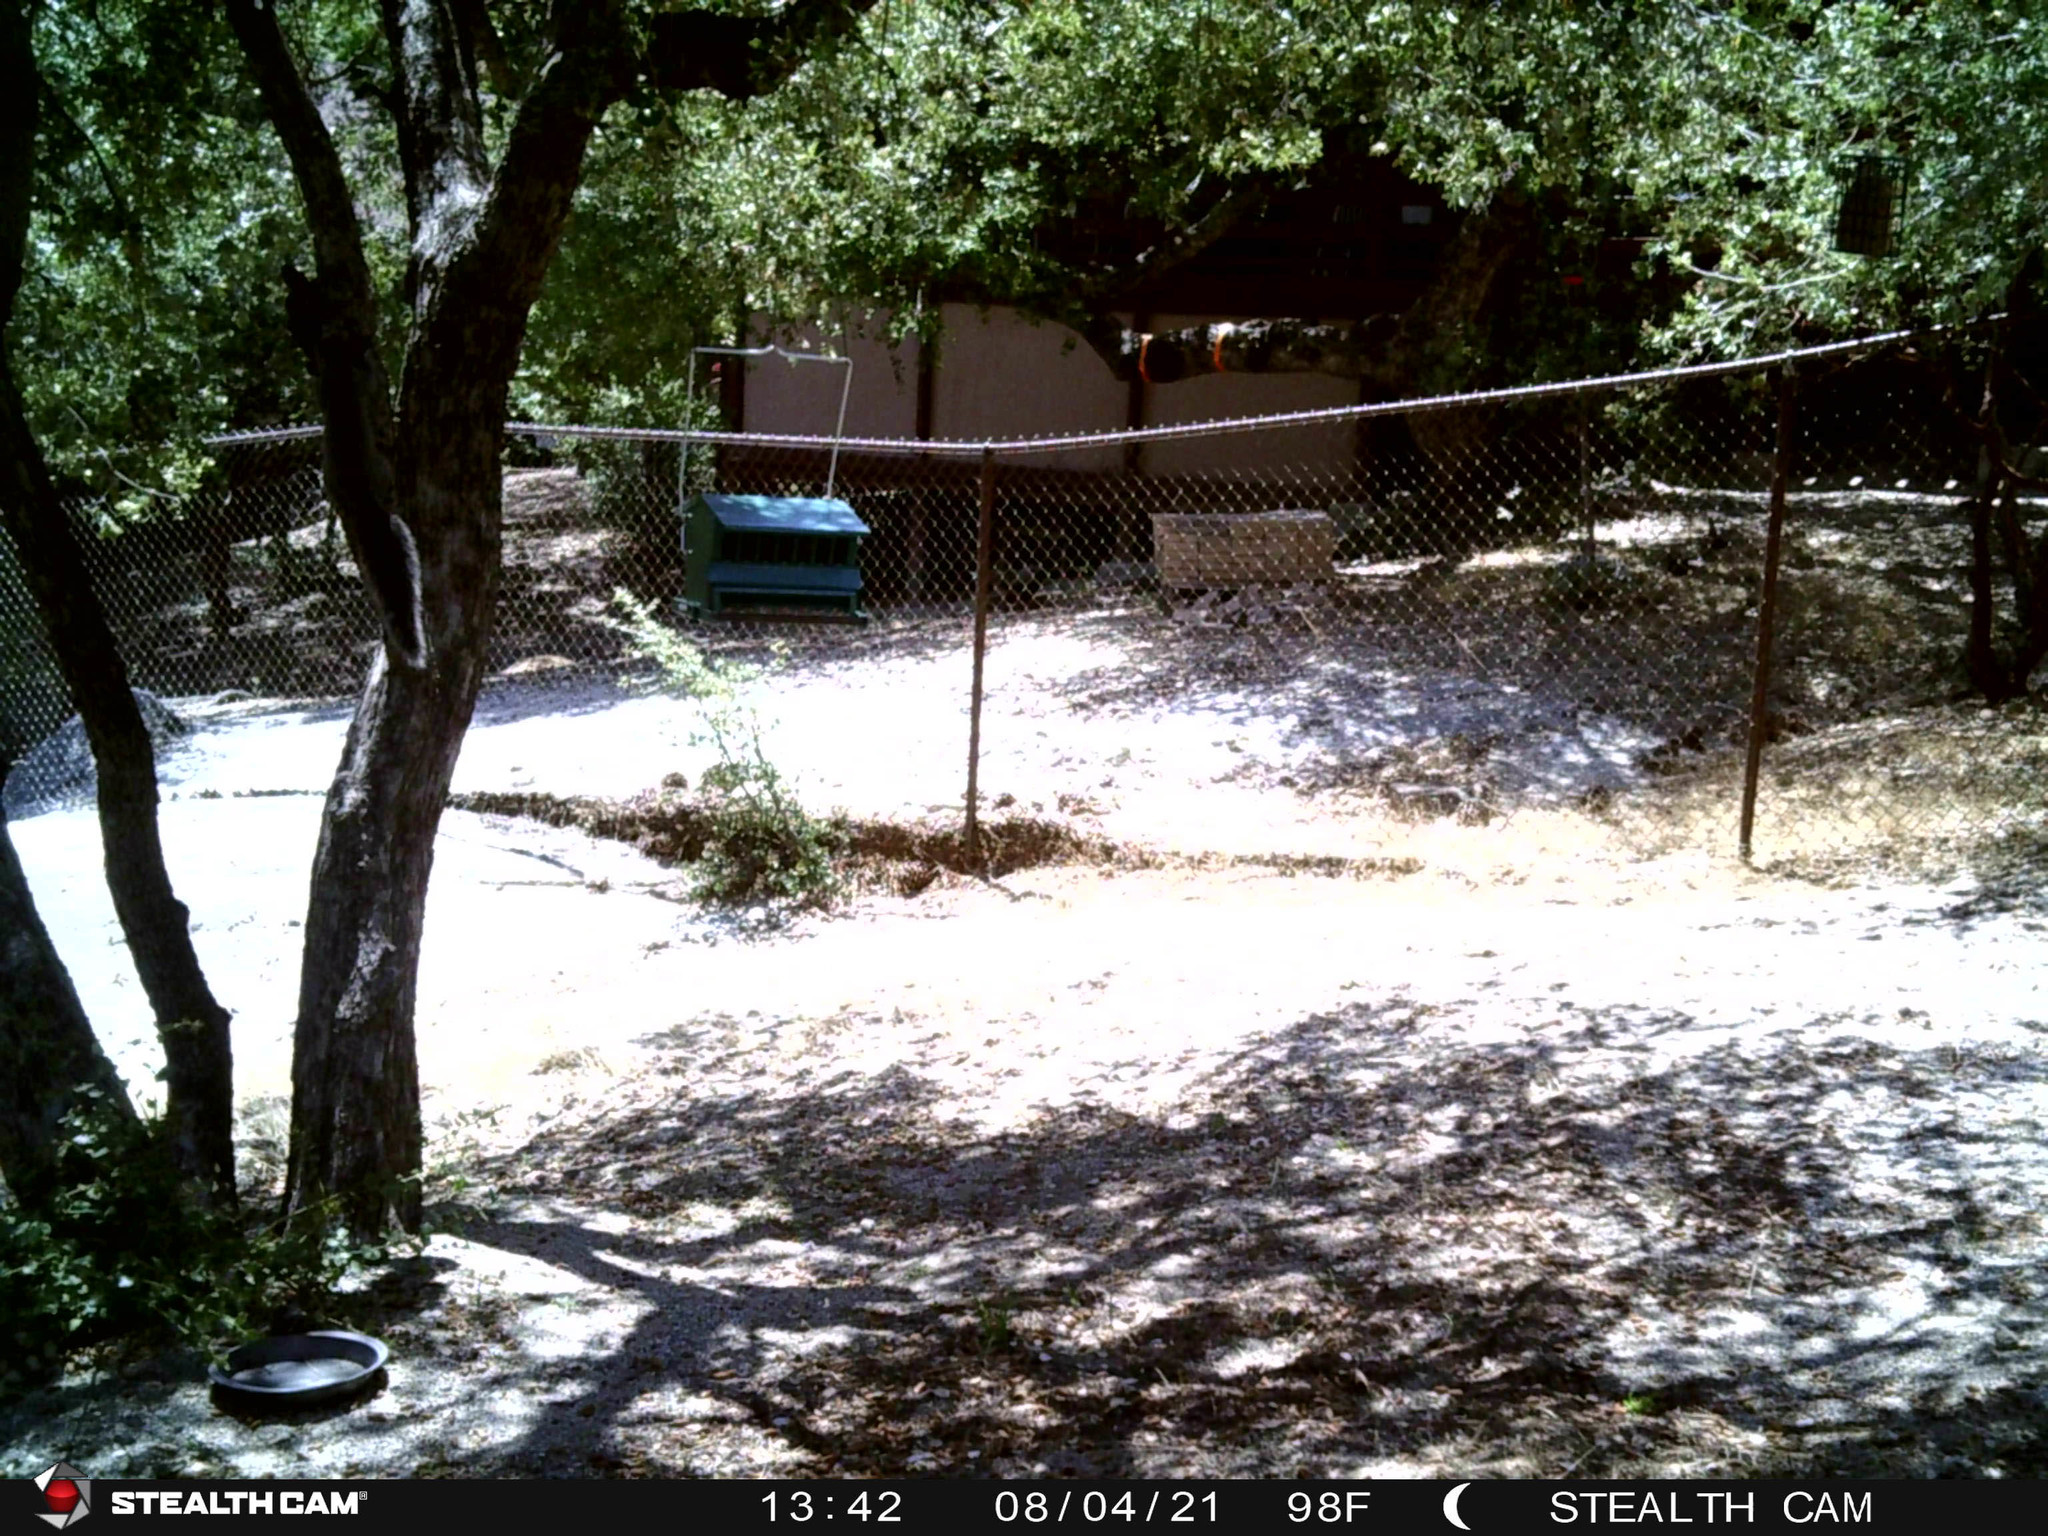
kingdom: Animalia
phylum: Chordata
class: Mammalia
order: Rodentia
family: Sciuridae
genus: Sciurus
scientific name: Sciurus griseus
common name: Western gray squirrel
